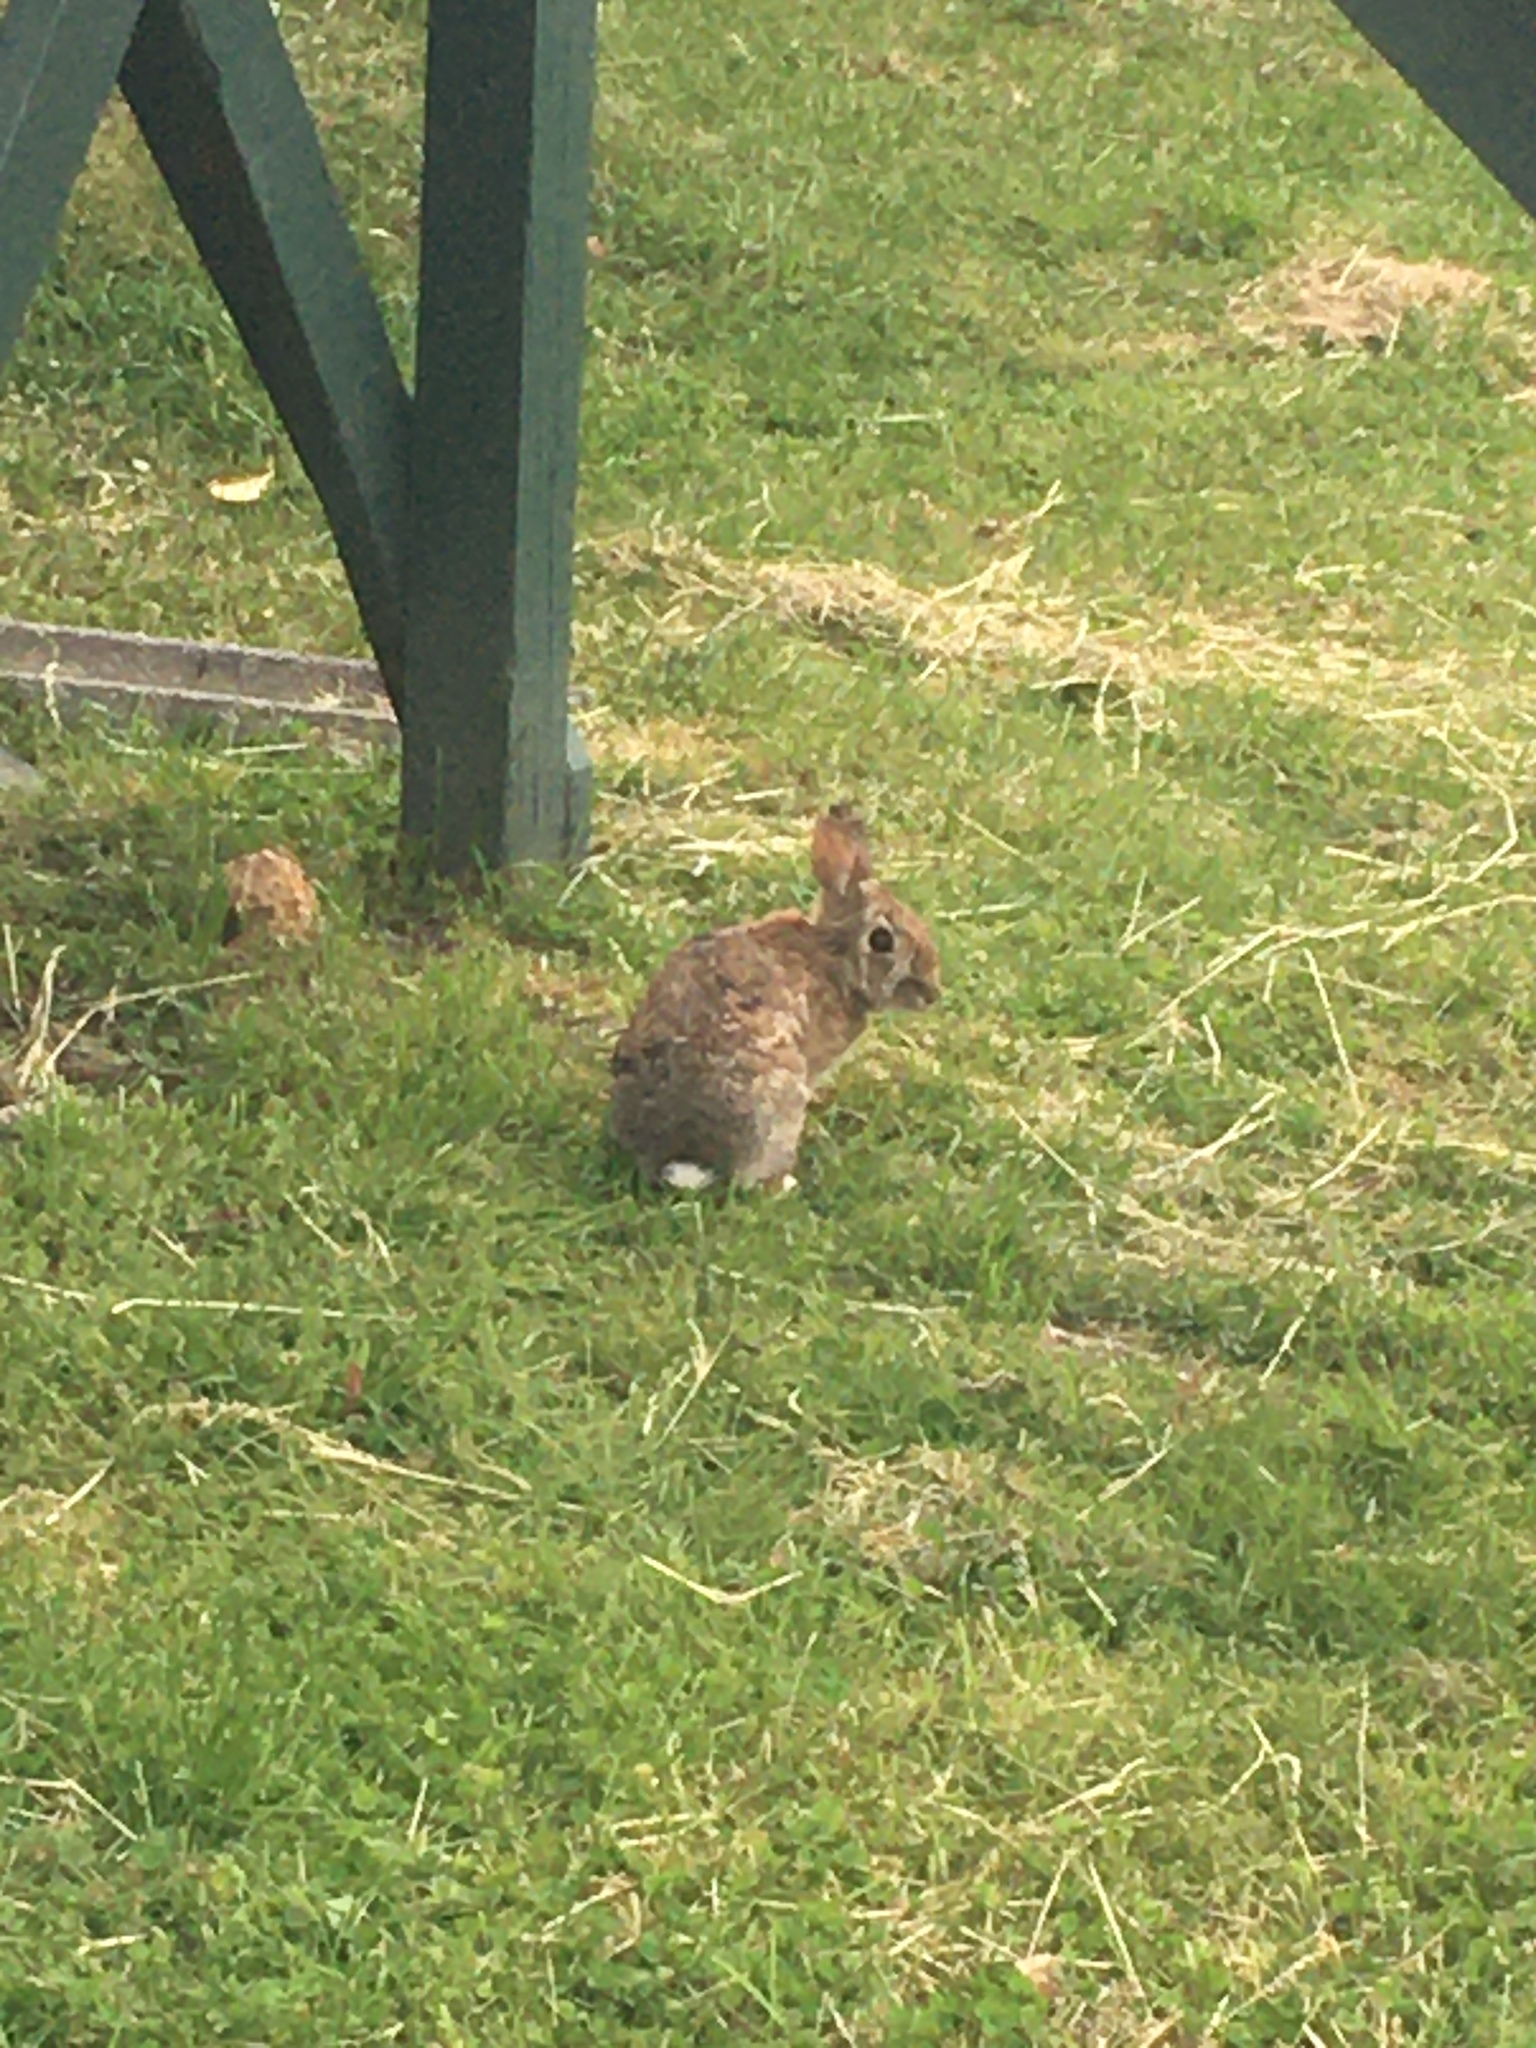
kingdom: Animalia
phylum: Chordata
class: Mammalia
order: Lagomorpha
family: Leporidae
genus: Sylvilagus
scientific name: Sylvilagus floridanus
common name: Eastern cottontail
